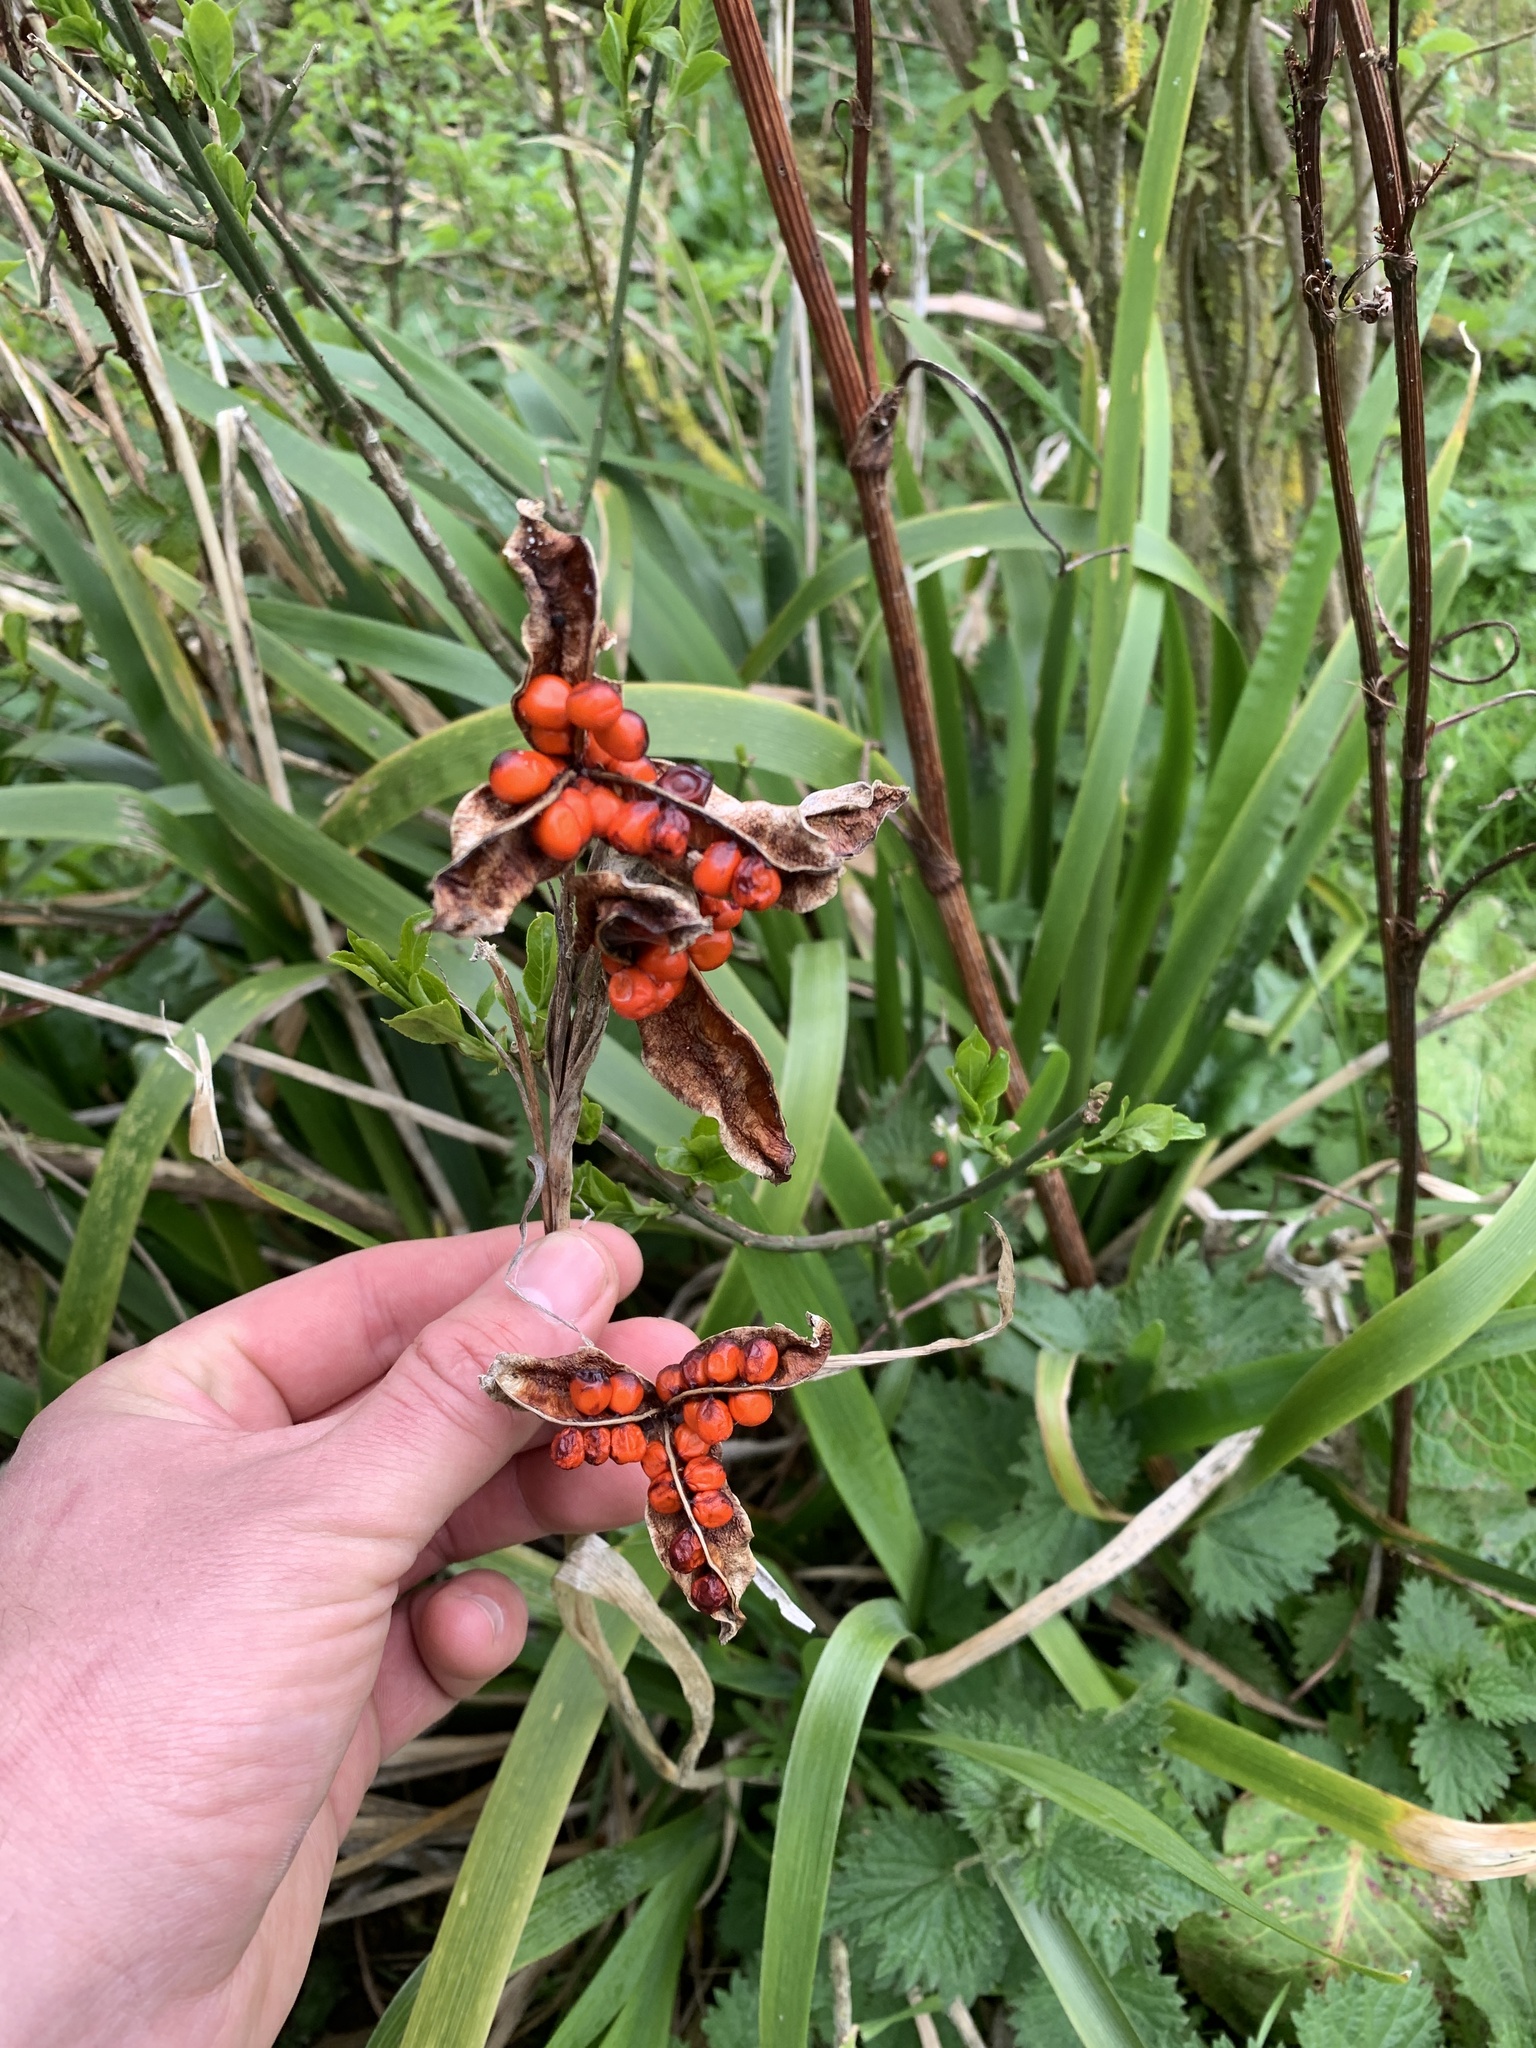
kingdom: Plantae
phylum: Tracheophyta
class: Liliopsida
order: Asparagales
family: Iridaceae
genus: Iris
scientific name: Iris foetidissima
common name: Stinking iris
